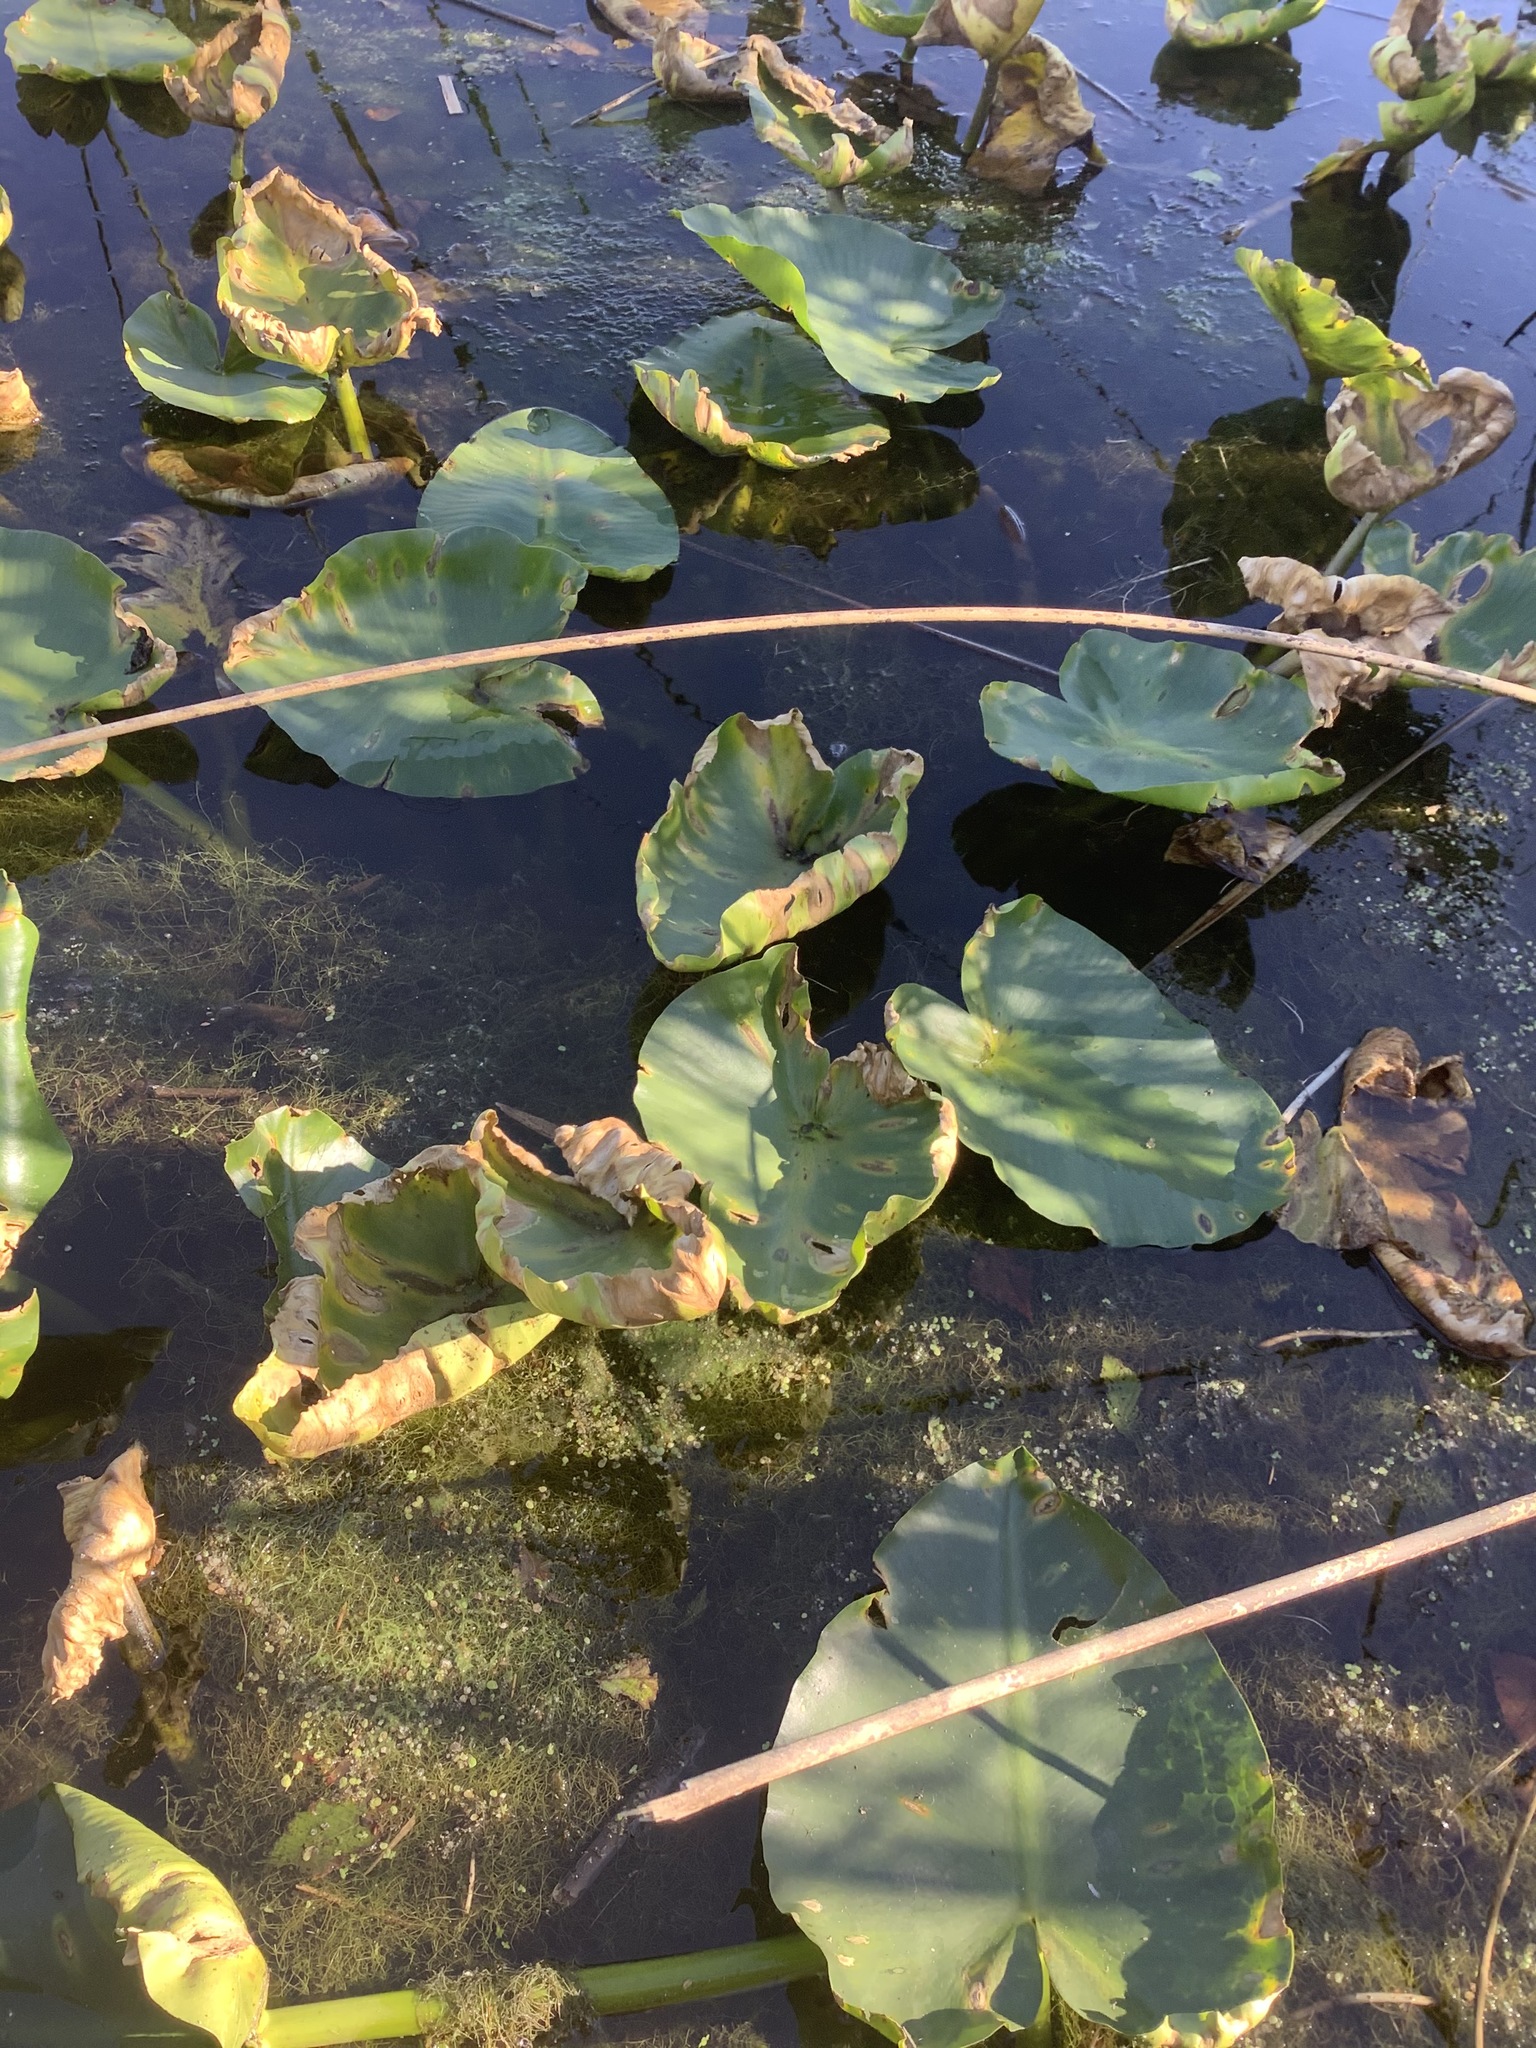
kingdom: Plantae
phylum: Tracheophyta
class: Magnoliopsida
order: Nymphaeales
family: Nymphaeaceae
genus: Nuphar
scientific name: Nuphar polysepala
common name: Rocky mountain cow-lily
